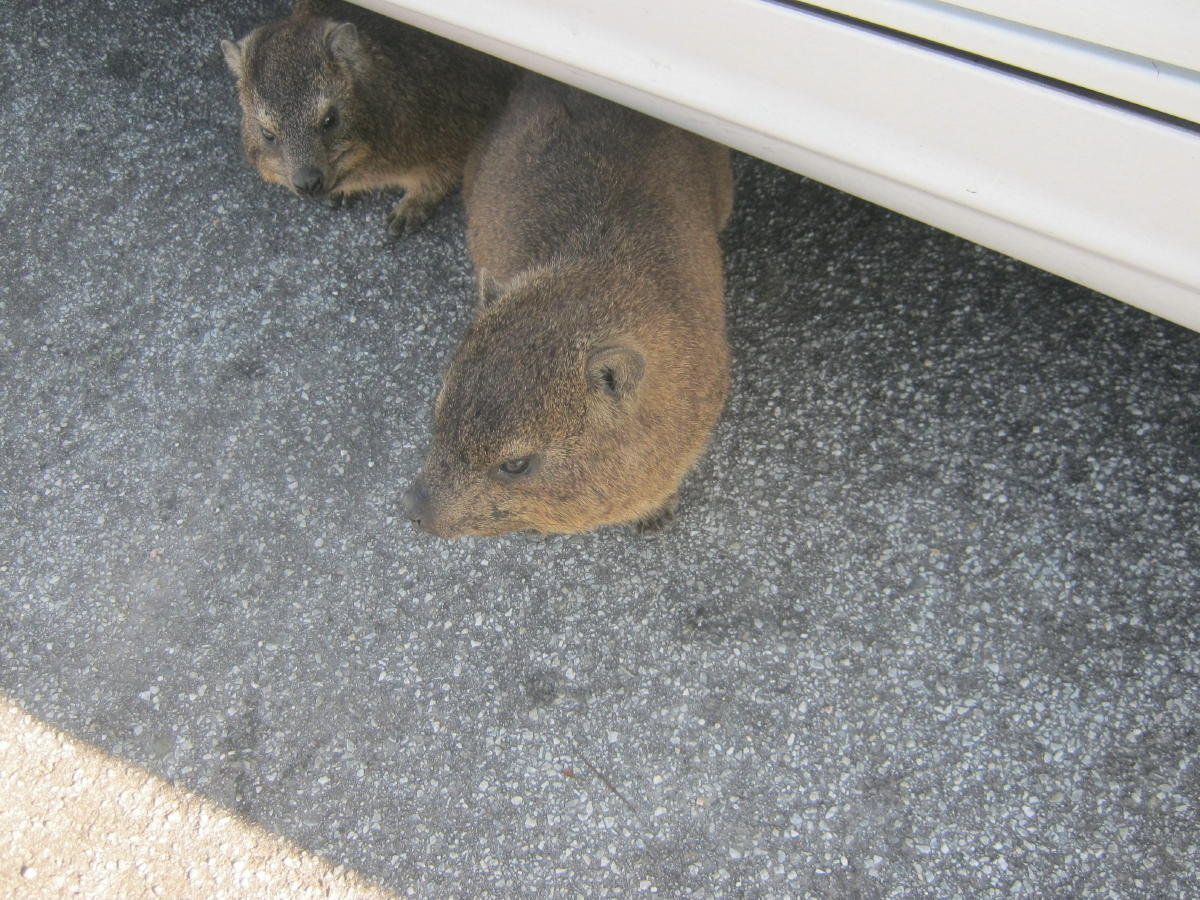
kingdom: Animalia
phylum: Chordata
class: Mammalia
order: Hyracoidea
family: Procaviidae
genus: Procavia
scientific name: Procavia capensis
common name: Rock hyrax
